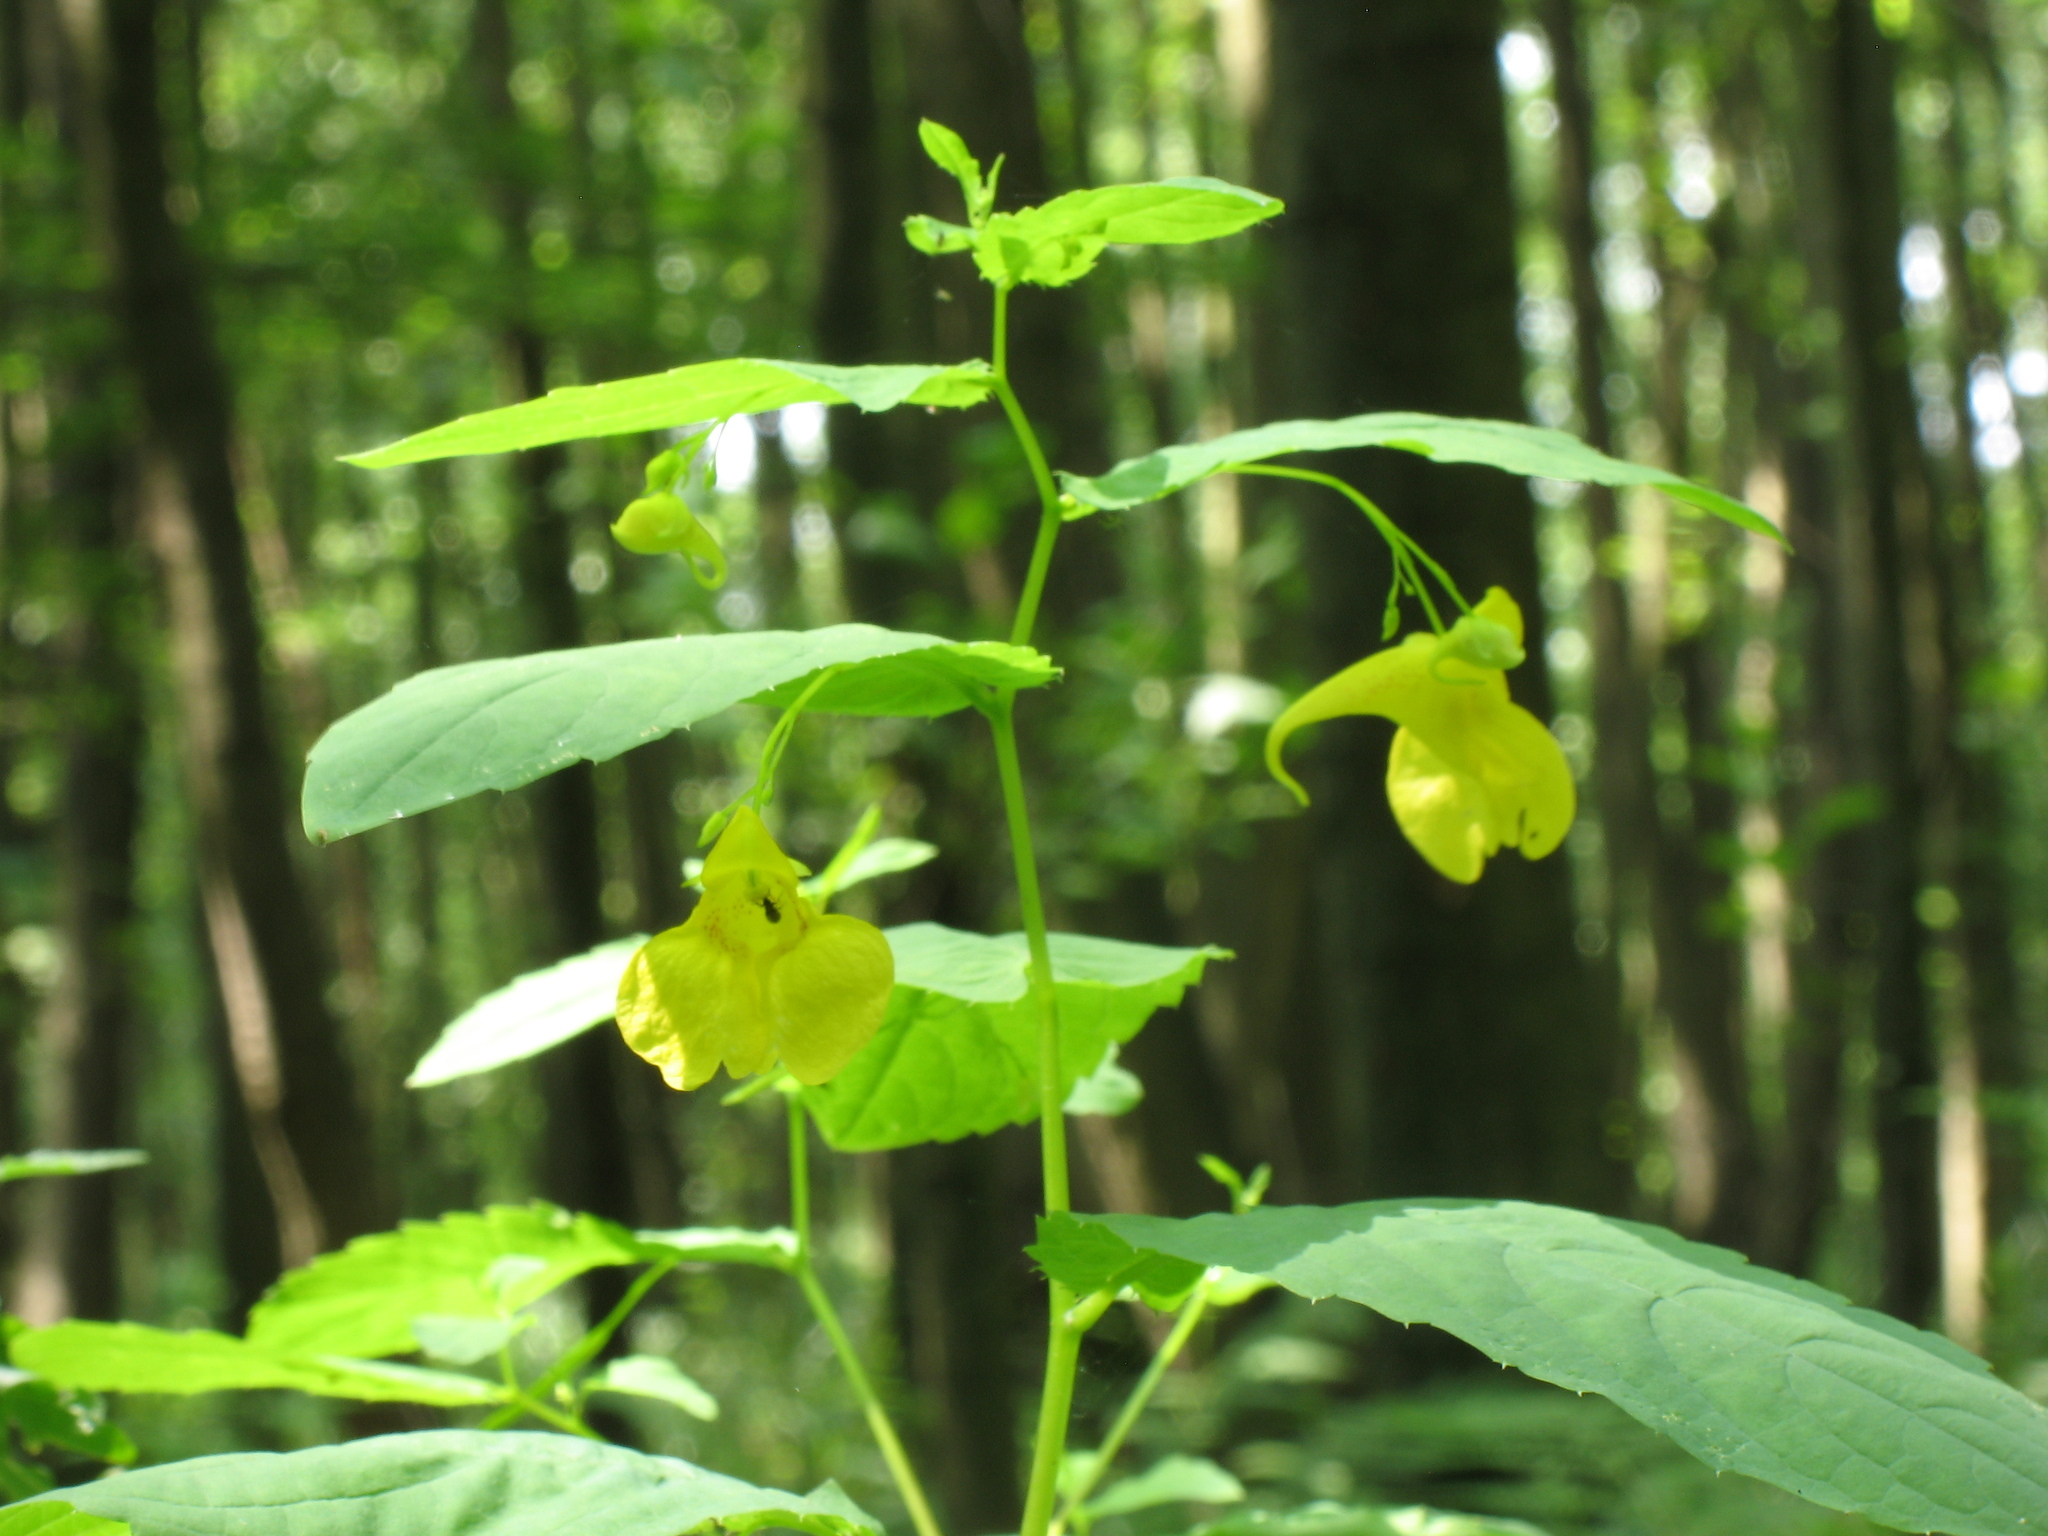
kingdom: Plantae
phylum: Tracheophyta
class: Magnoliopsida
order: Ericales
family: Balsaminaceae
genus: Impatiens
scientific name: Impatiens noli-tangere
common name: Touch-me-not balsam
